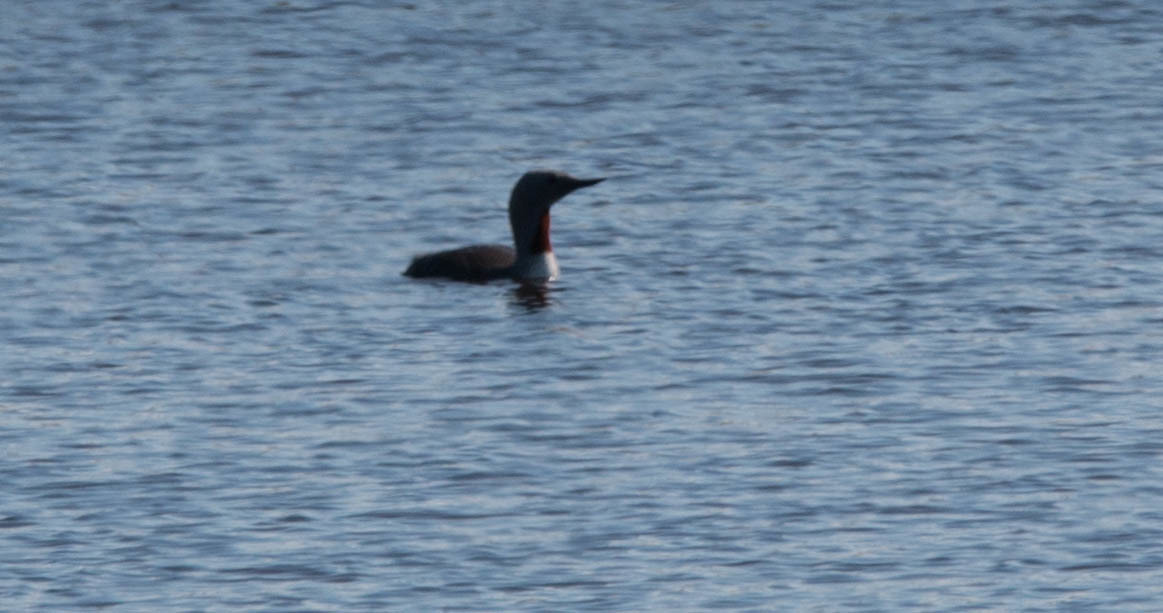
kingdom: Animalia
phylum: Chordata
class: Aves
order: Gaviiformes
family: Gaviidae
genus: Gavia
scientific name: Gavia stellata
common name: Red-throated loon
